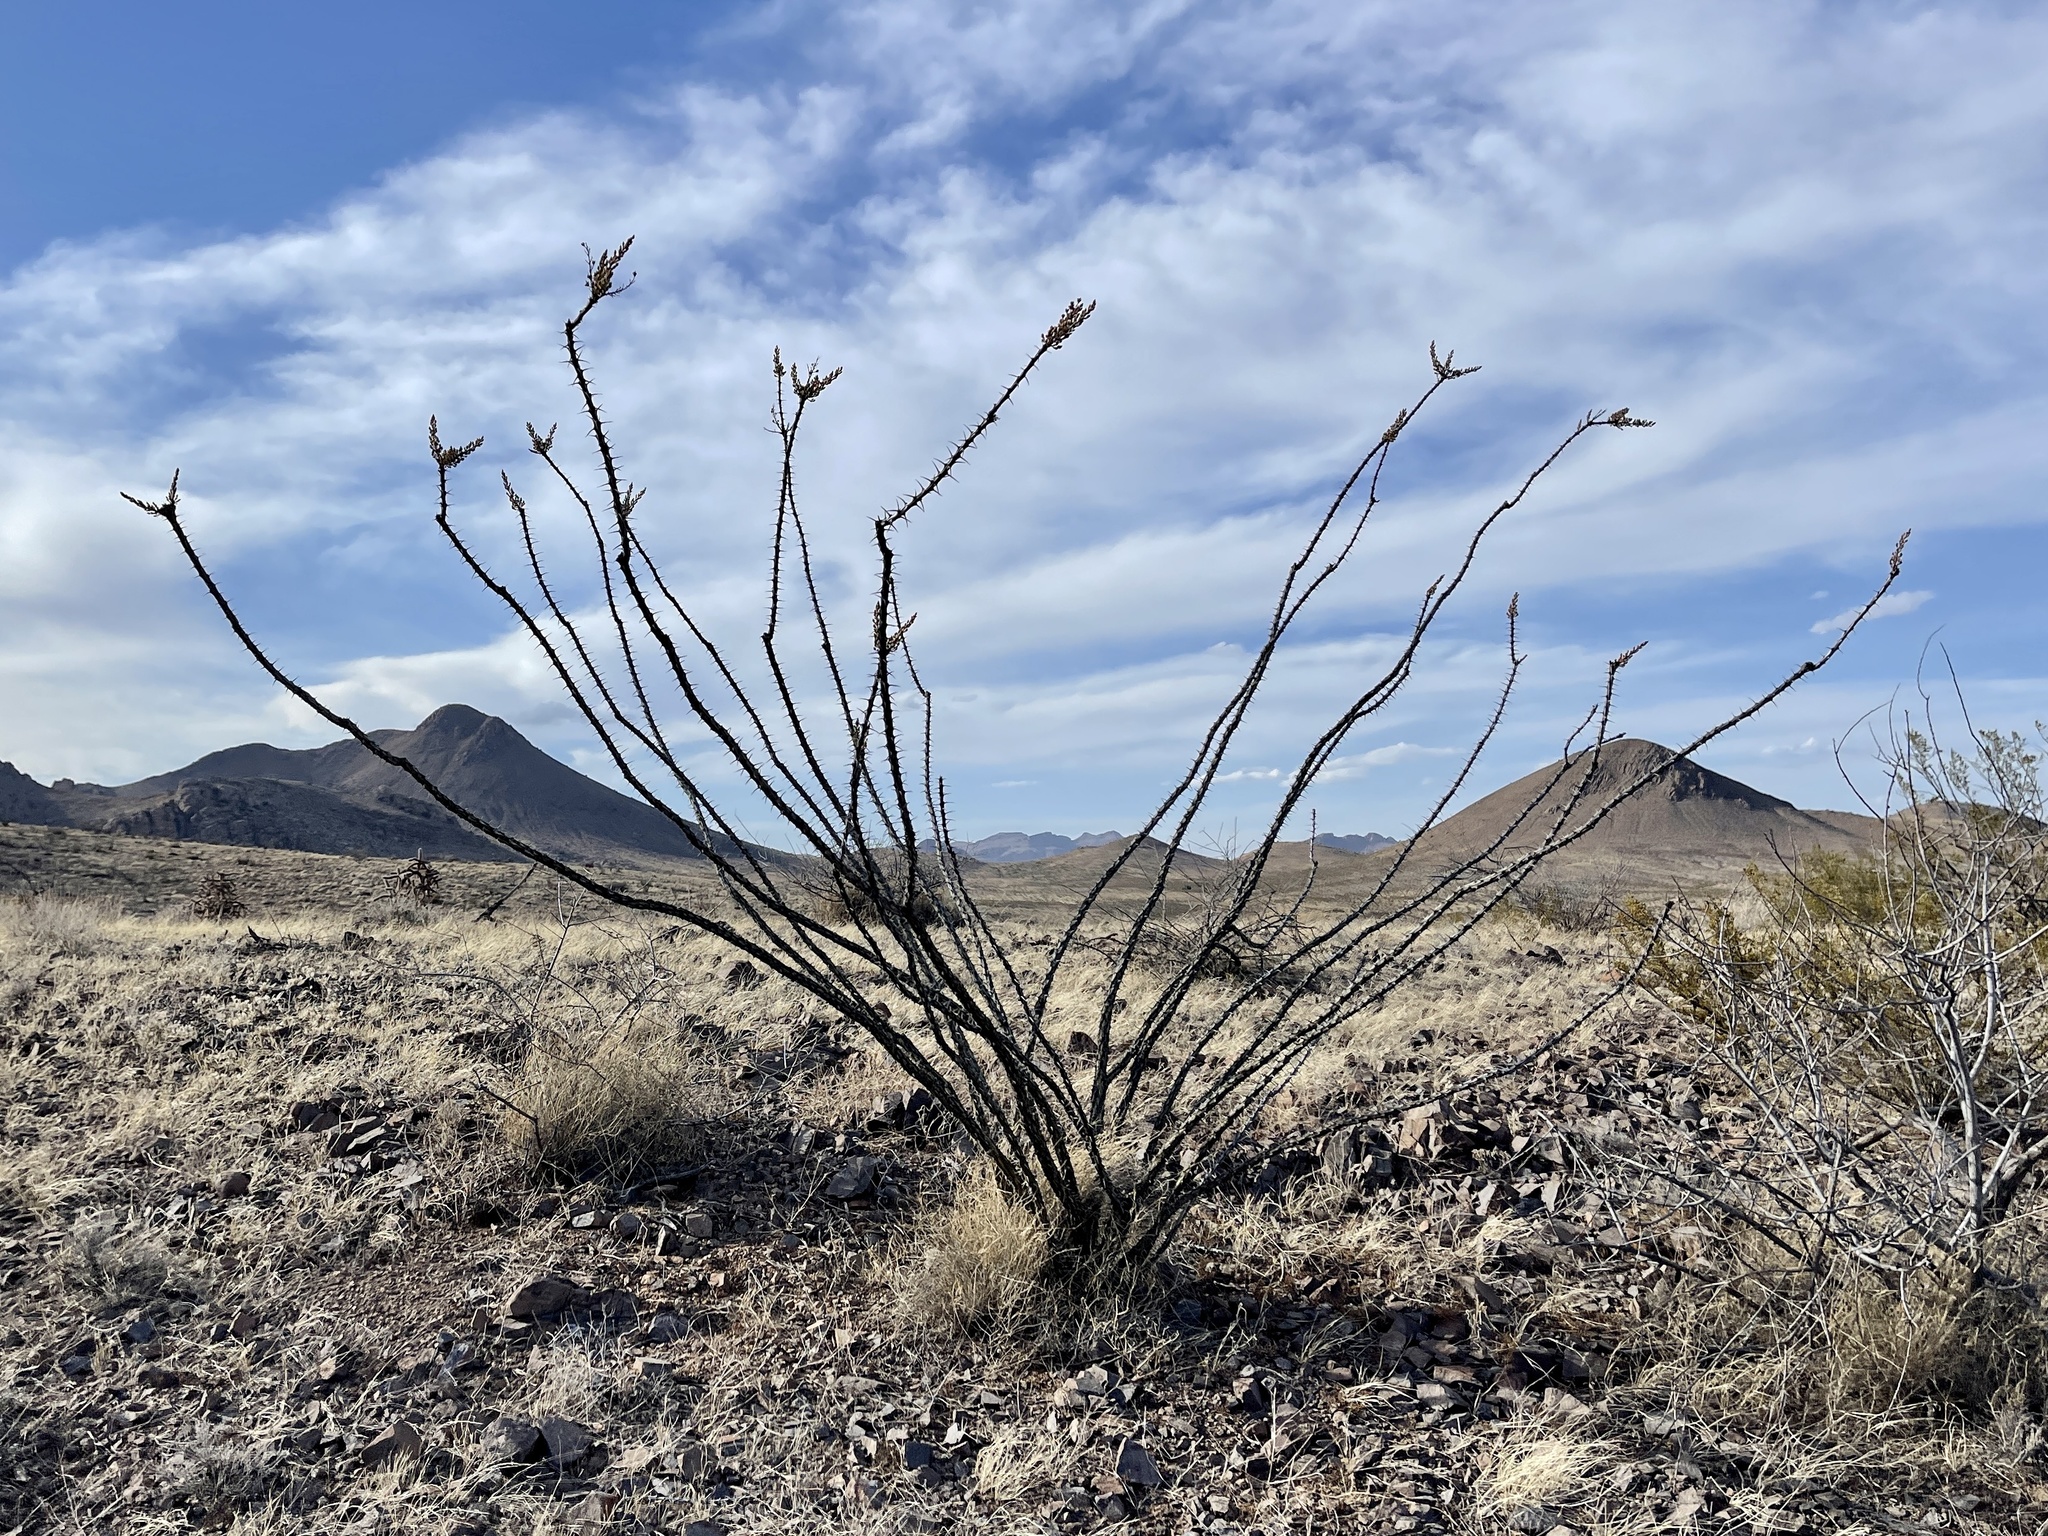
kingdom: Plantae
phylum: Tracheophyta
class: Magnoliopsida
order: Ericales
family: Fouquieriaceae
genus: Fouquieria
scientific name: Fouquieria splendens
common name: Vine-cactus
